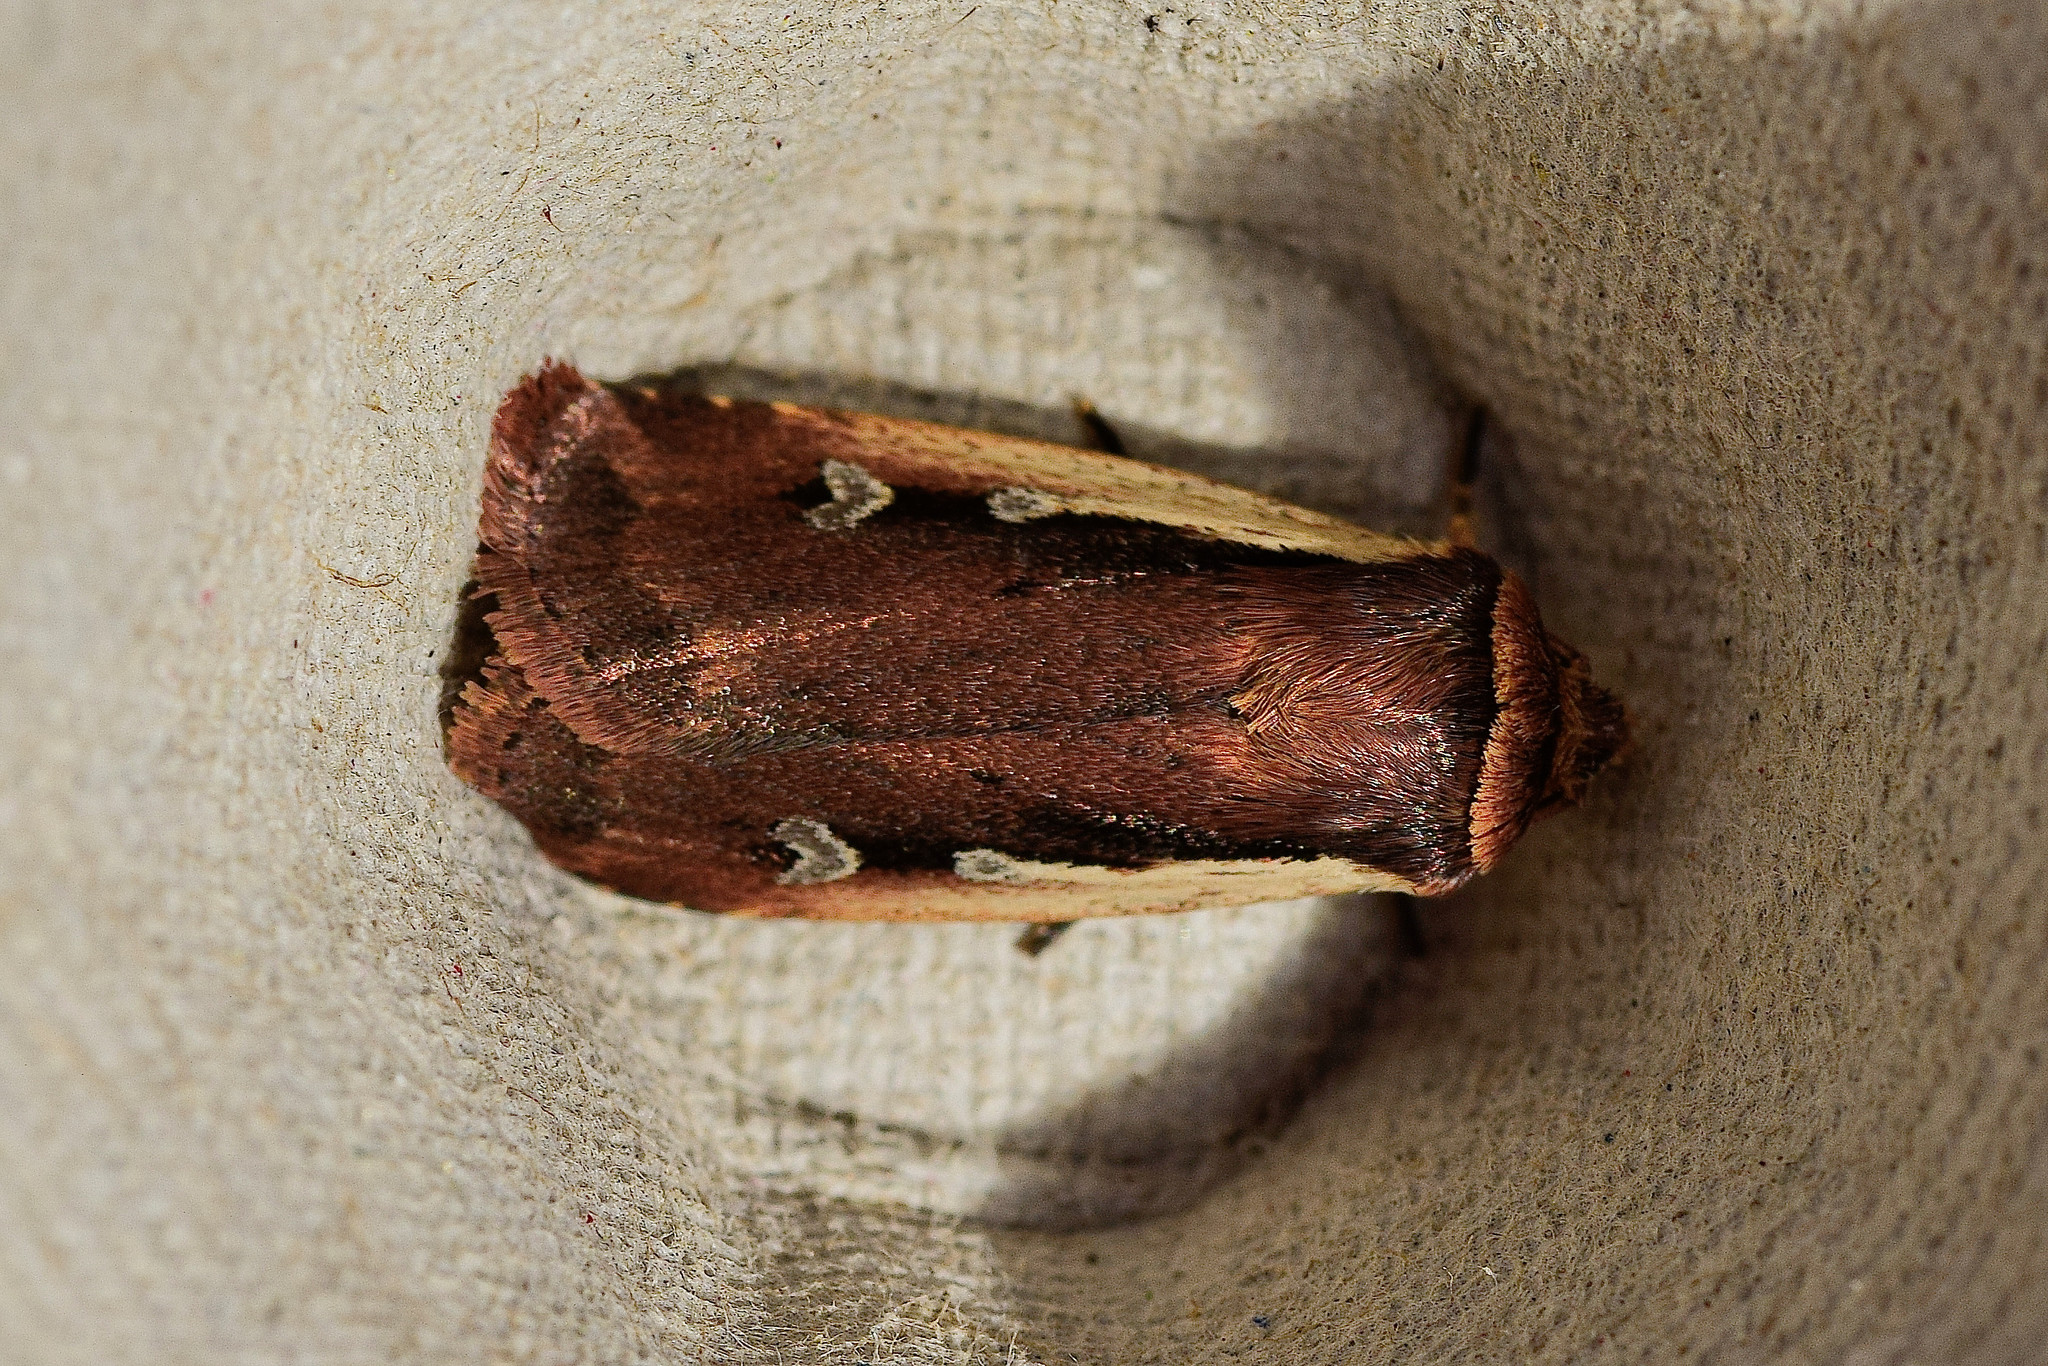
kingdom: Animalia
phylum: Arthropoda
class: Insecta
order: Lepidoptera
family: Noctuidae
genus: Ochropleura
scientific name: Ochropleura plecta
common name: Flame shoulder
